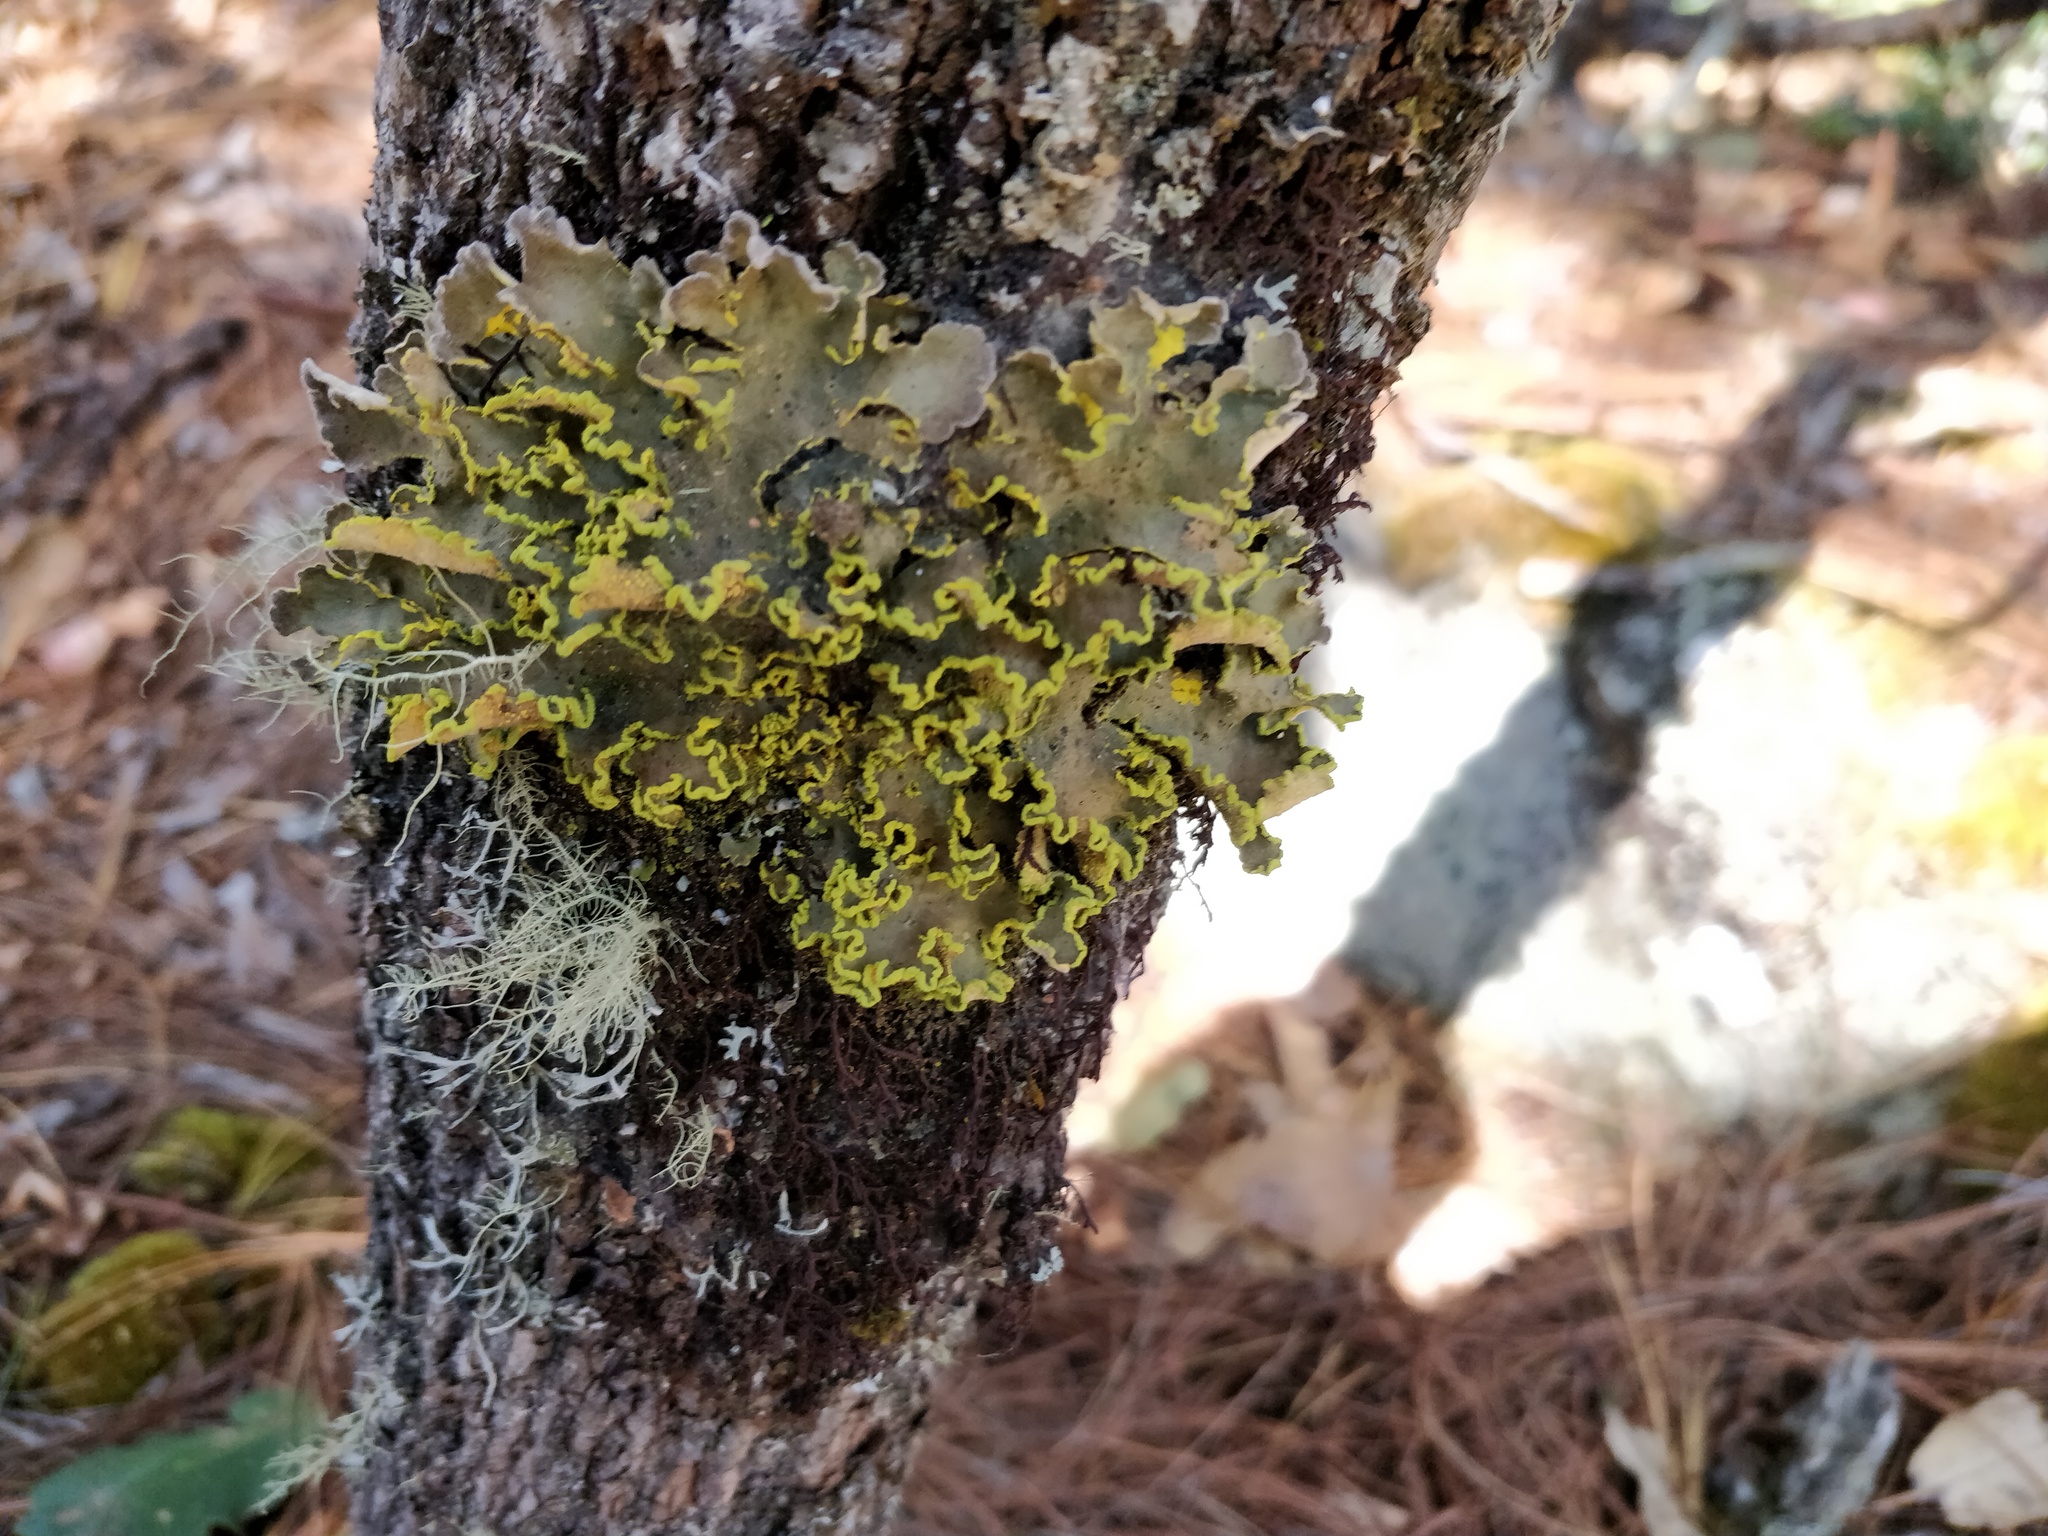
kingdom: Fungi
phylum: Ascomycota
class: Lecanoromycetes
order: Peltigerales
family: Lobariaceae
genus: Pseudocyphellaria
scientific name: Pseudocyphellaria aurata
